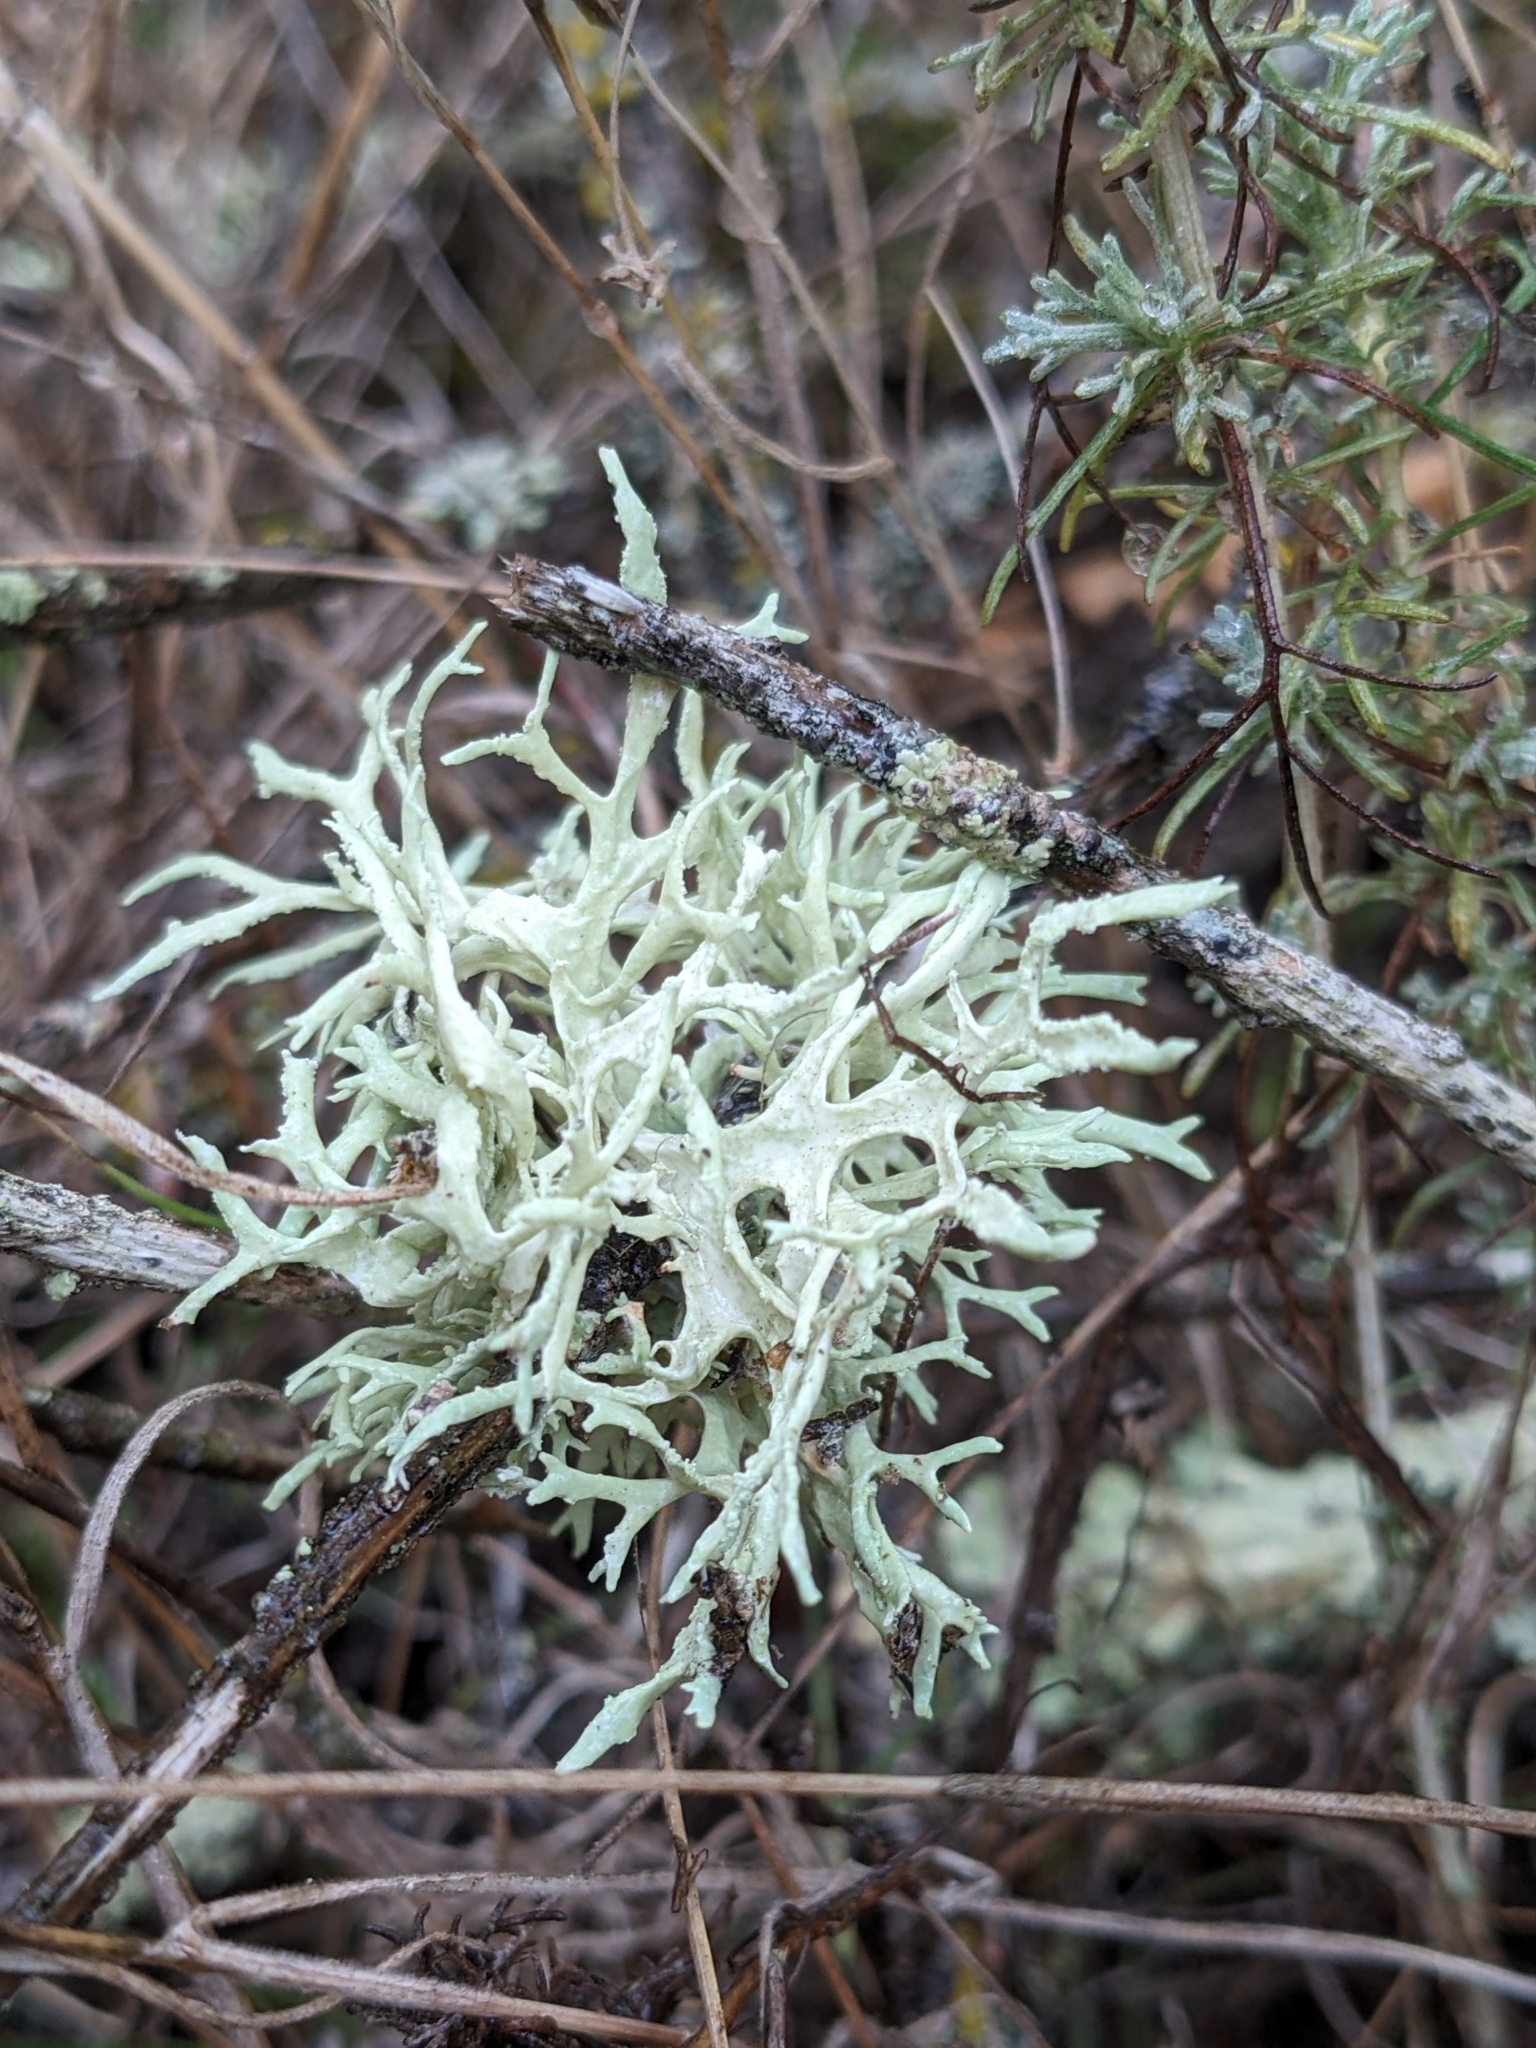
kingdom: Fungi
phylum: Ascomycota
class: Lecanoromycetes
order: Lecanorales
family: Parmeliaceae
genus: Evernia
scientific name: Evernia prunastri
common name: Oak moss
